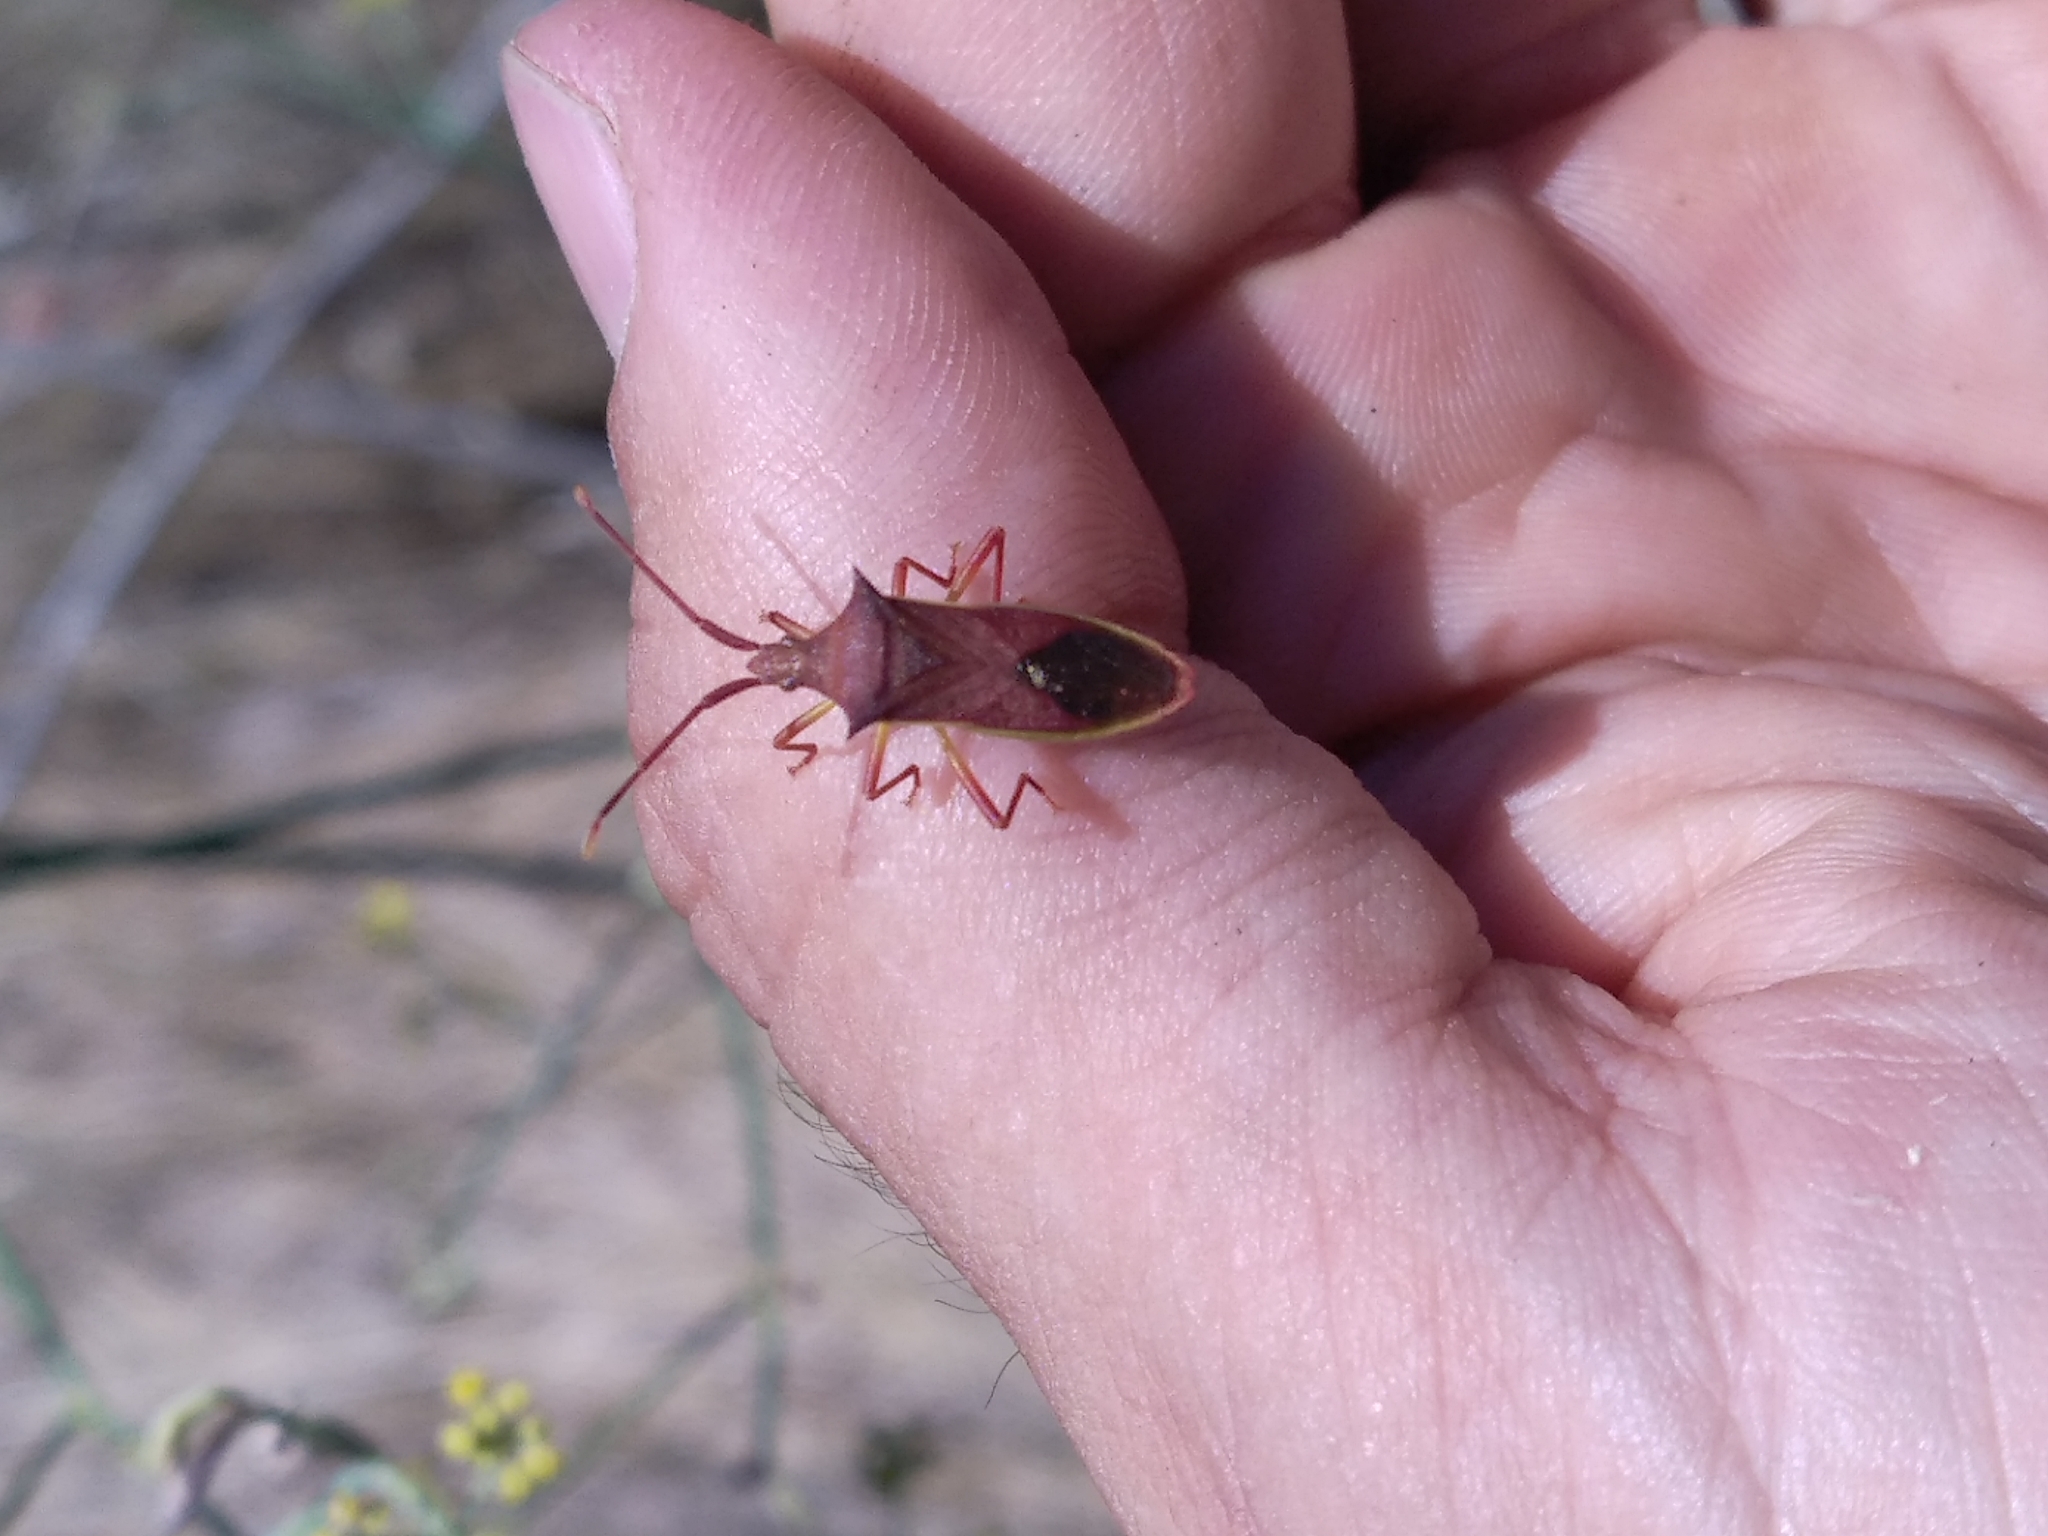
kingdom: Animalia
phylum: Arthropoda
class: Insecta
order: Hemiptera
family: Coreidae
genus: Gonocerus
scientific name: Gonocerus insidiator
